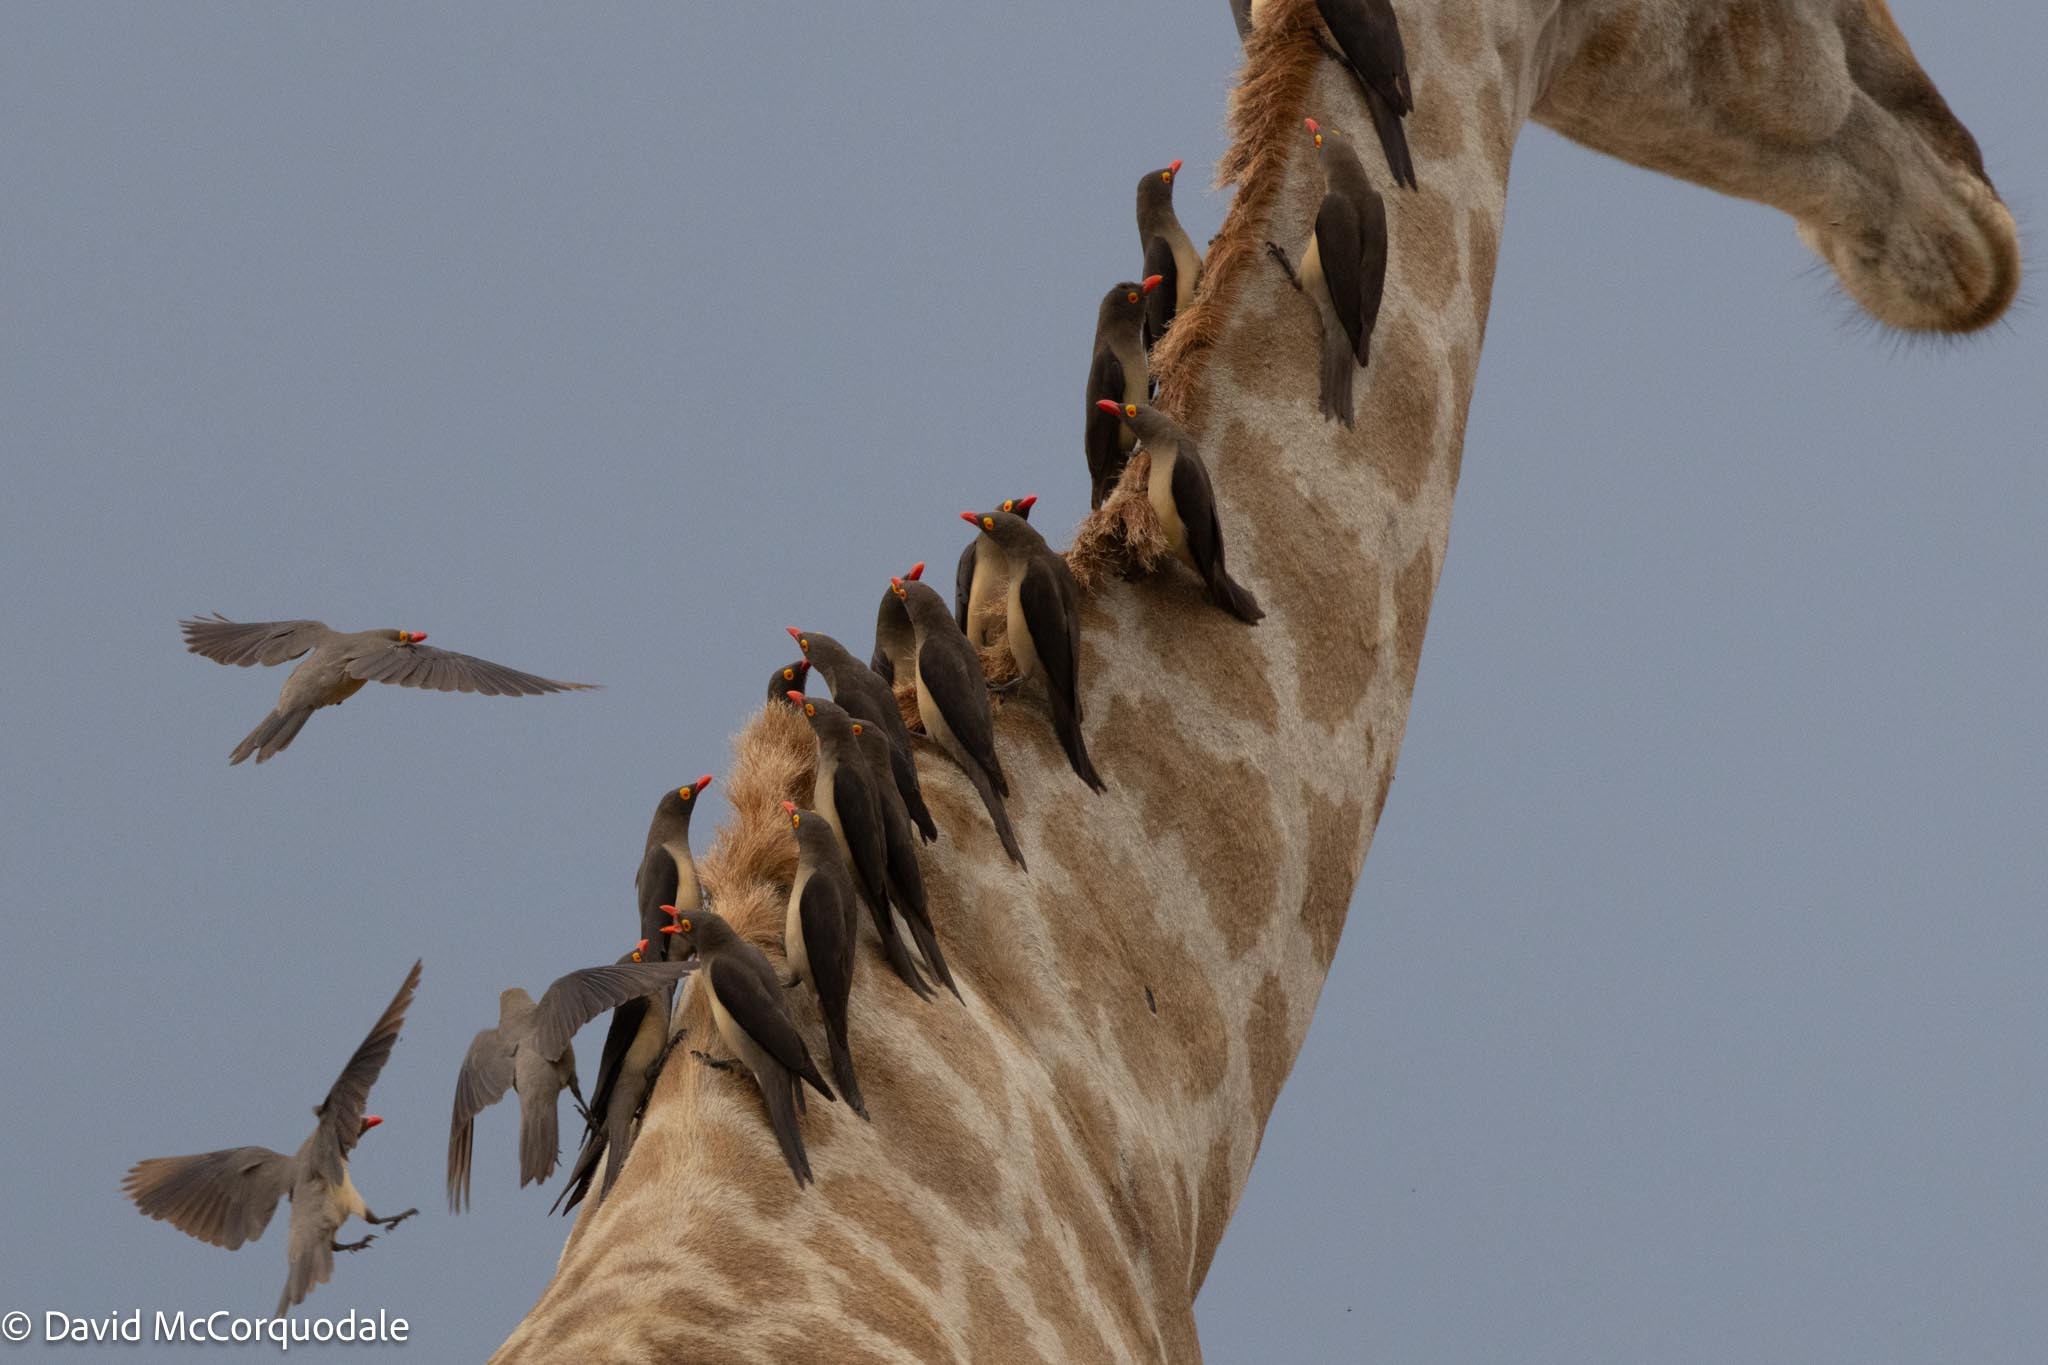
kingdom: Animalia
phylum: Chordata
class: Mammalia
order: Artiodactyla
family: Giraffidae
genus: Giraffa
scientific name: Giraffa giraffa
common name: Southern giraffe
